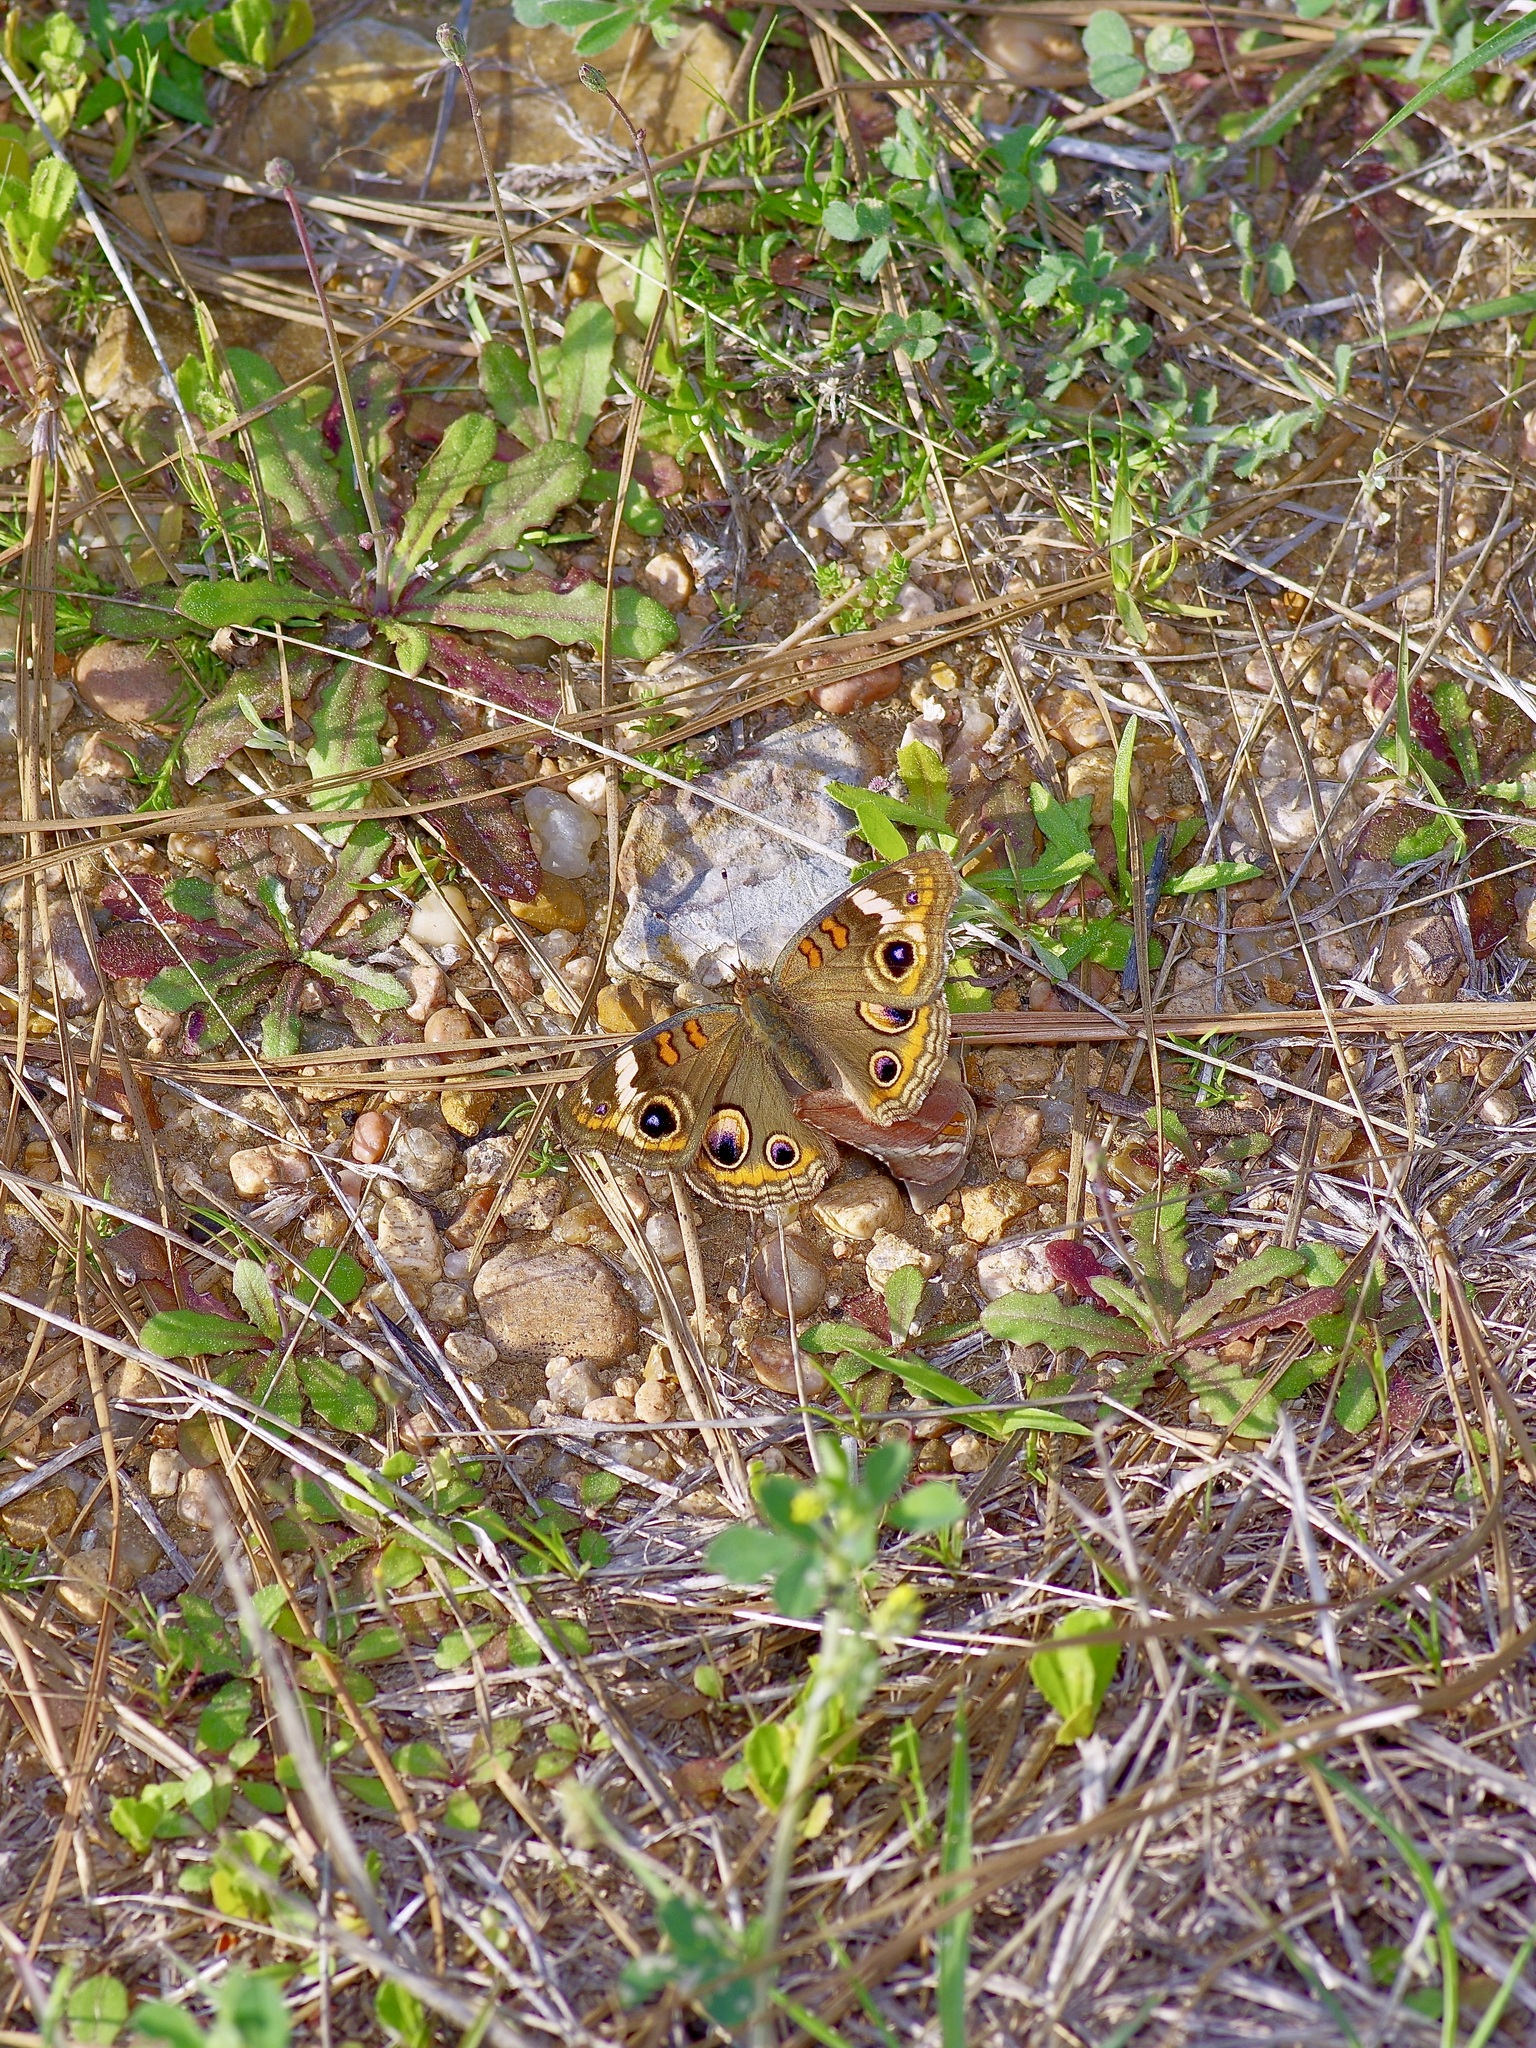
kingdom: Animalia
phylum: Arthropoda
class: Insecta
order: Lepidoptera
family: Nymphalidae
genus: Junonia
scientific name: Junonia coenia
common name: Common buckeye
